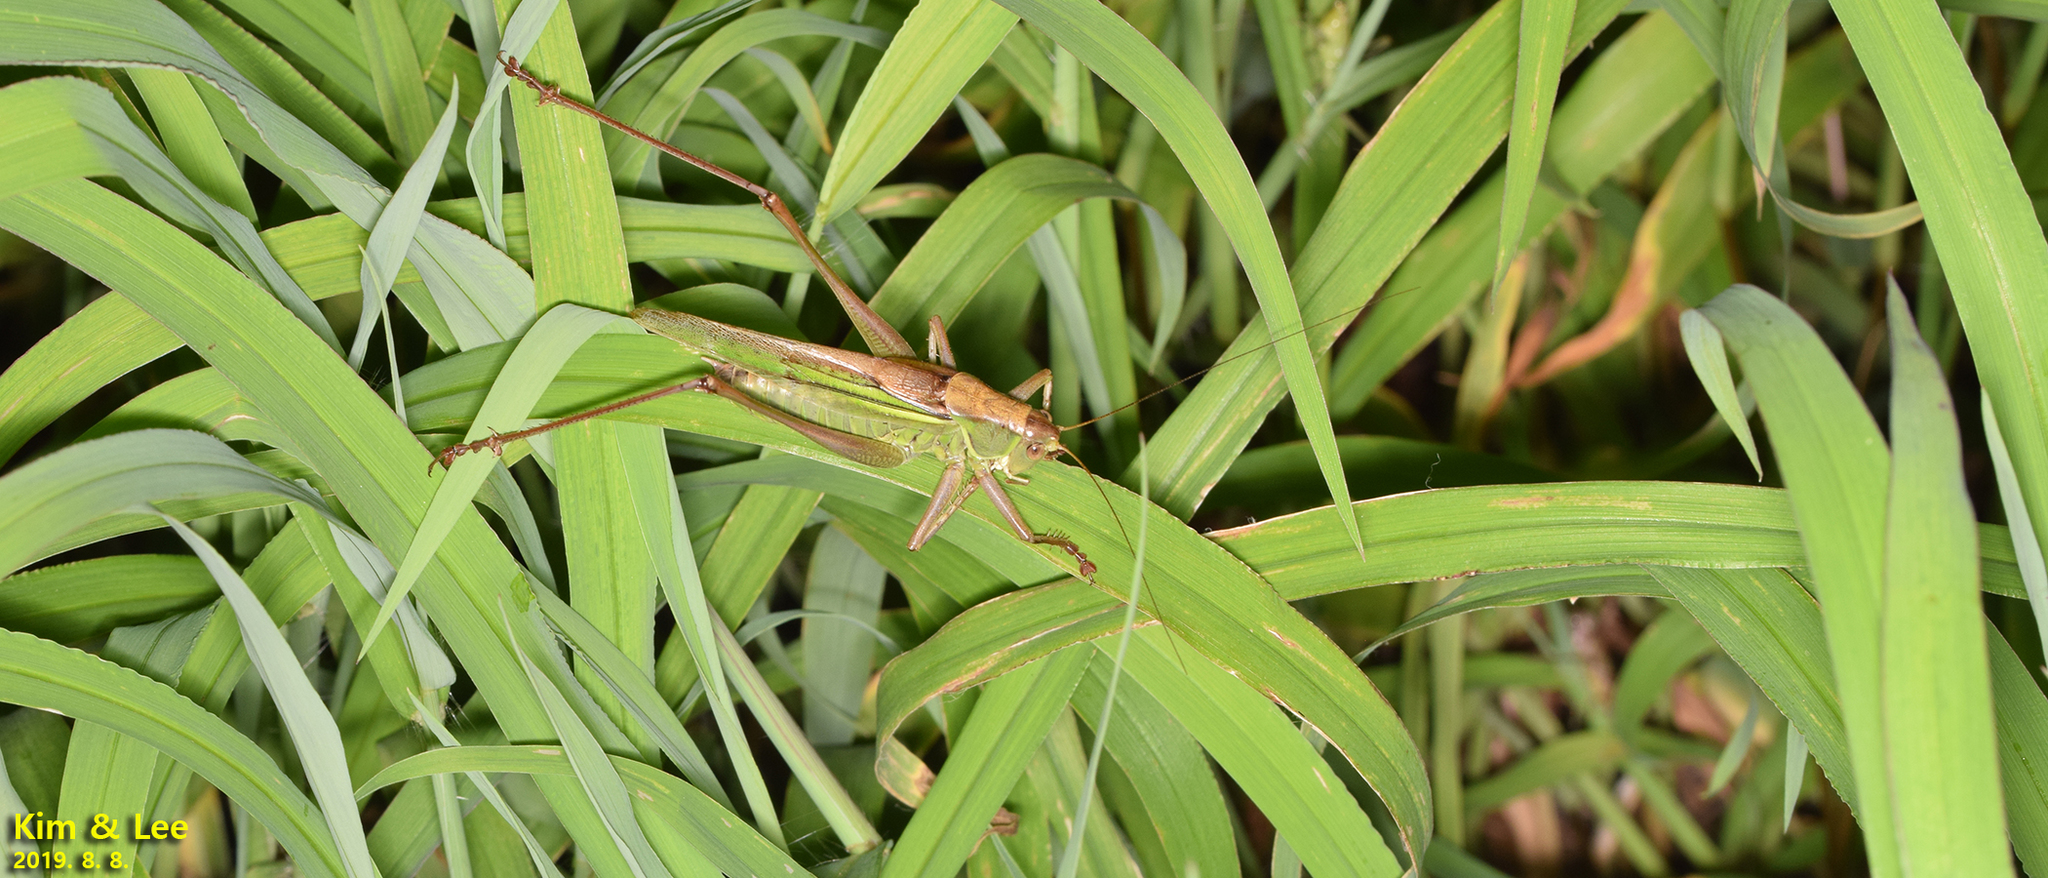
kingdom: Animalia
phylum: Arthropoda
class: Insecta
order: Orthoptera
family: Tettigoniidae
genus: Gampsocleis
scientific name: Gampsocleis ussuriensis
